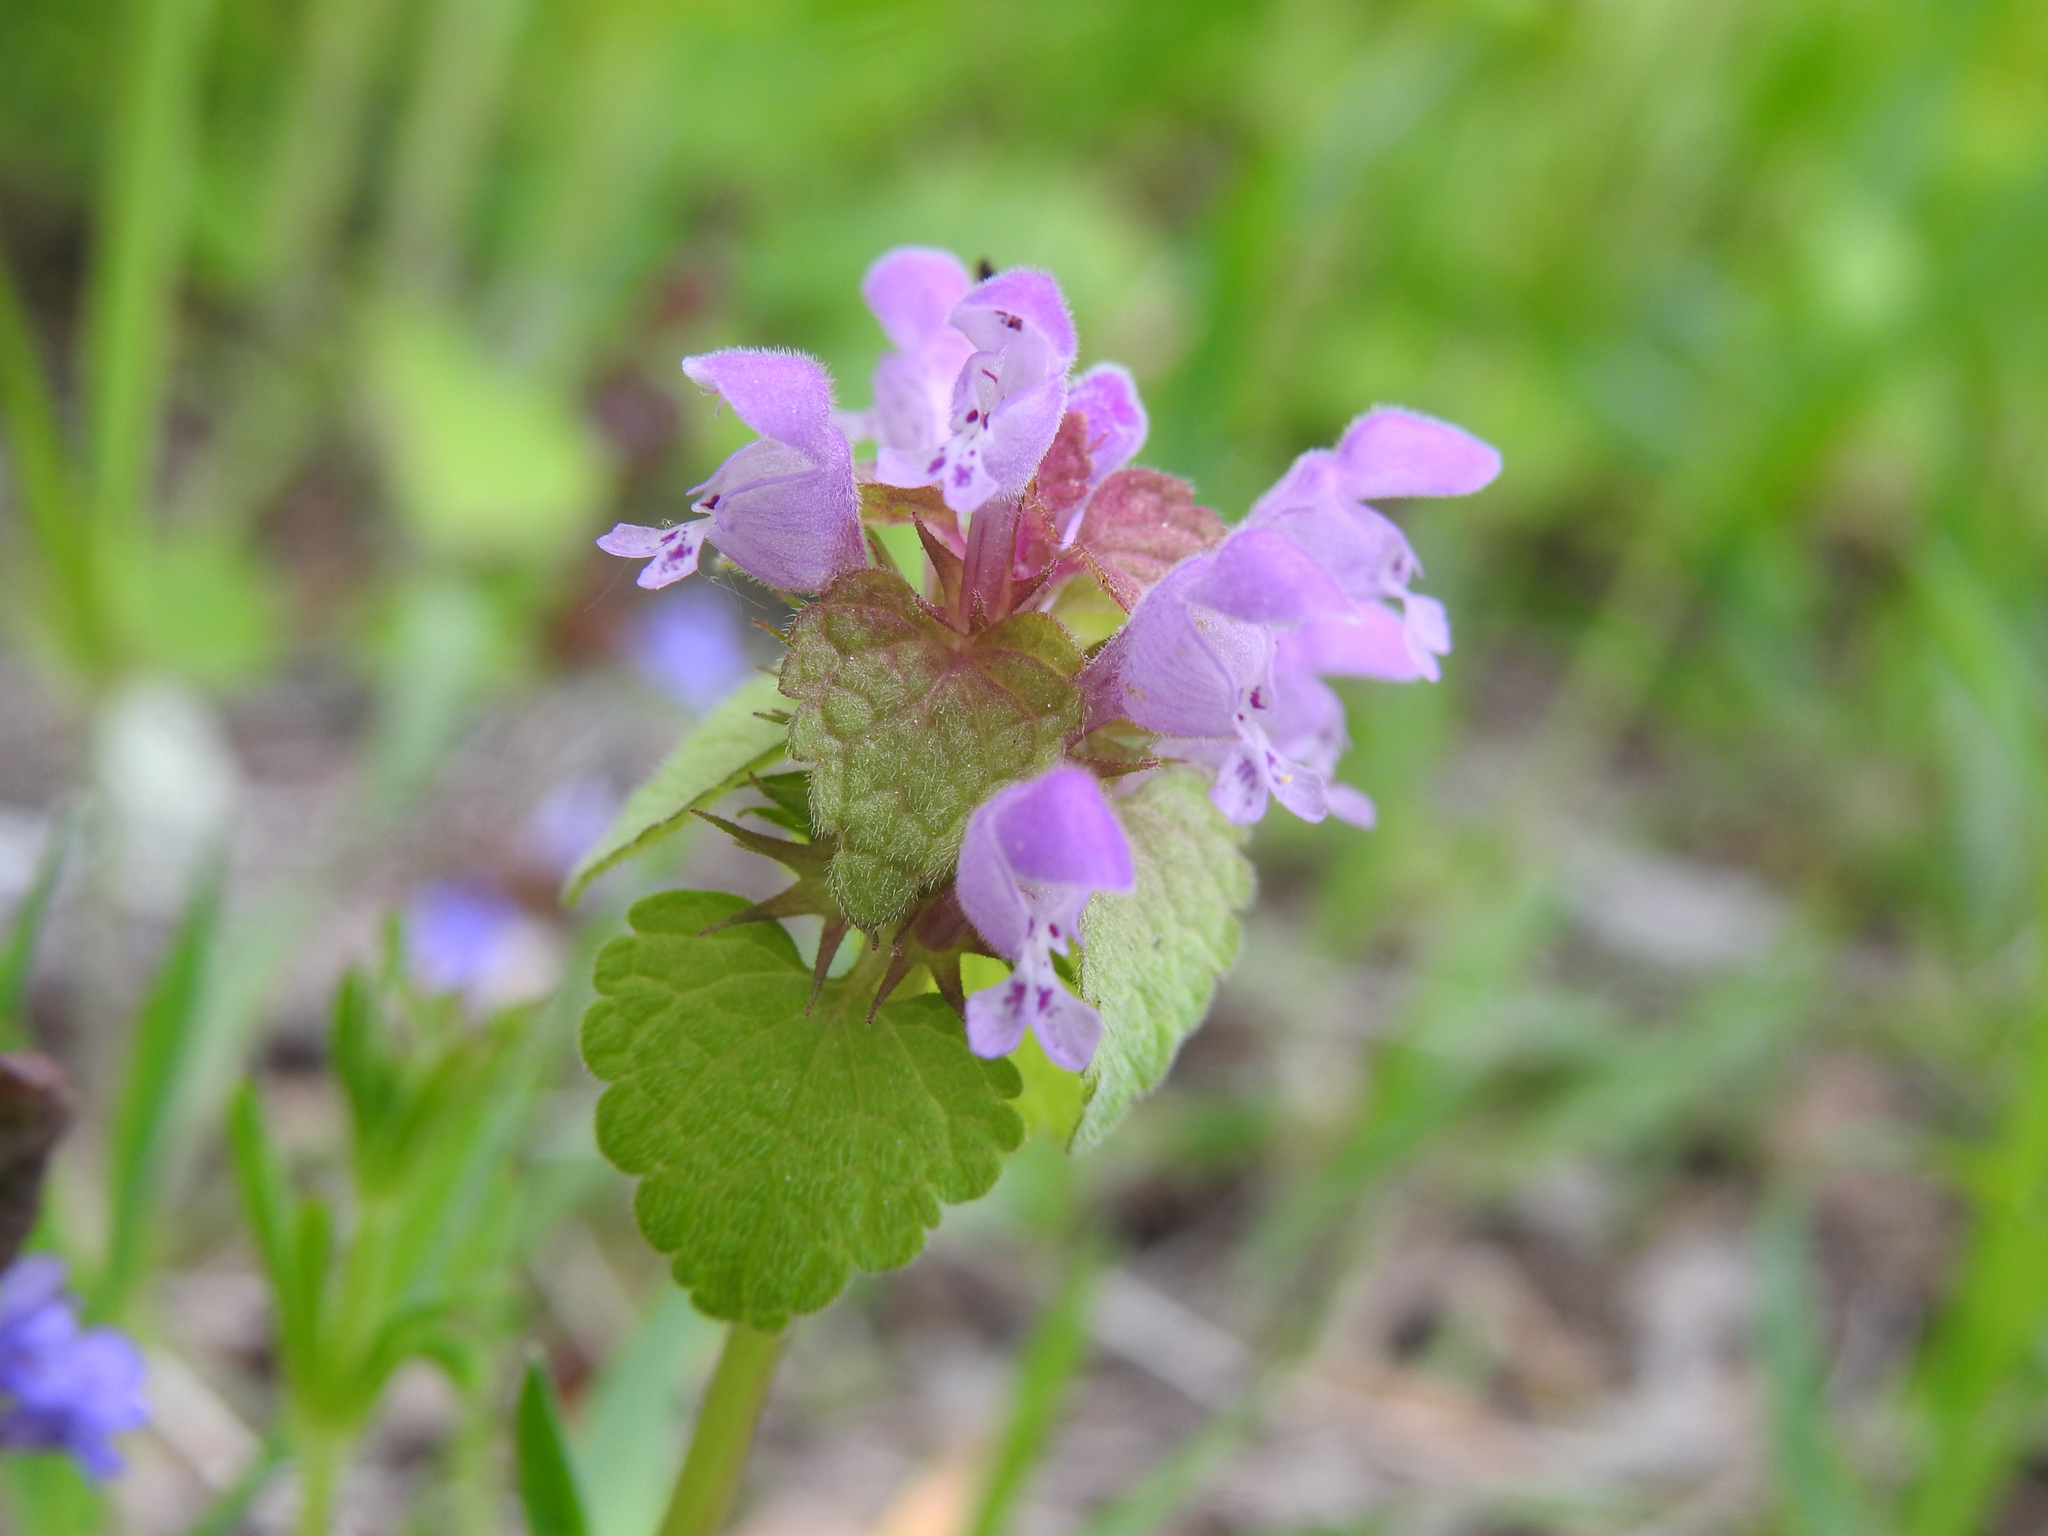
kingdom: Plantae
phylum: Tracheophyta
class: Magnoliopsida
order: Lamiales
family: Lamiaceae
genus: Lamium
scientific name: Lamium purpureum
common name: Red dead-nettle
